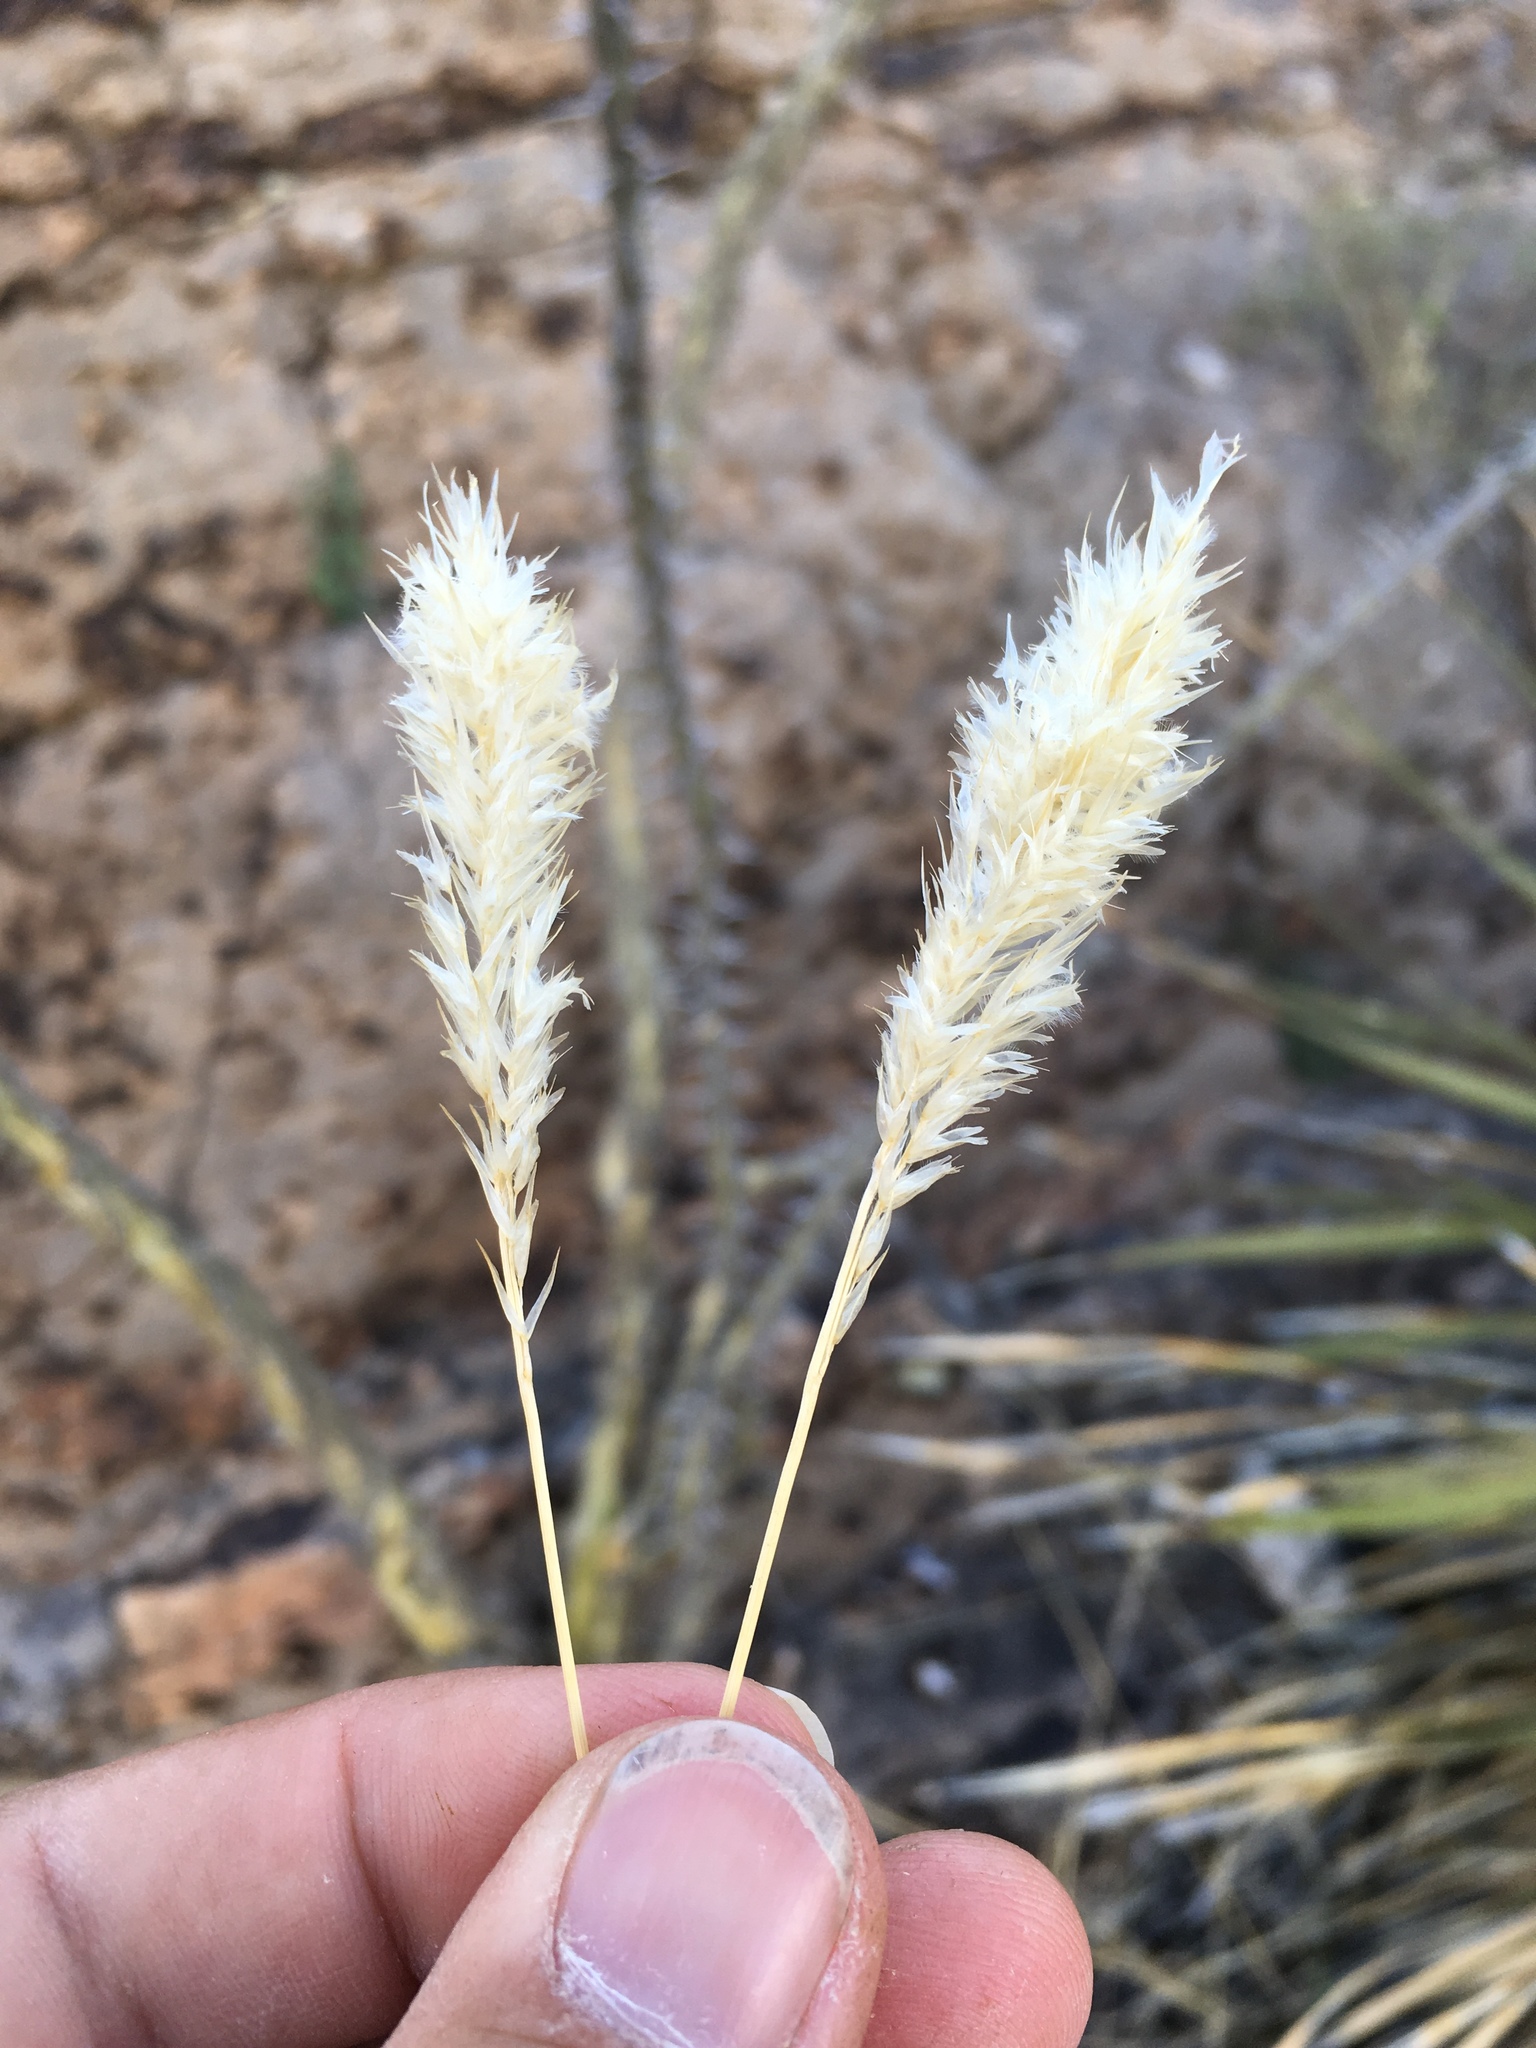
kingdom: Plantae
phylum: Tracheophyta
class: Liliopsida
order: Poales
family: Poaceae
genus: Erioneuron
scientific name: Erioneuron avenaceum
